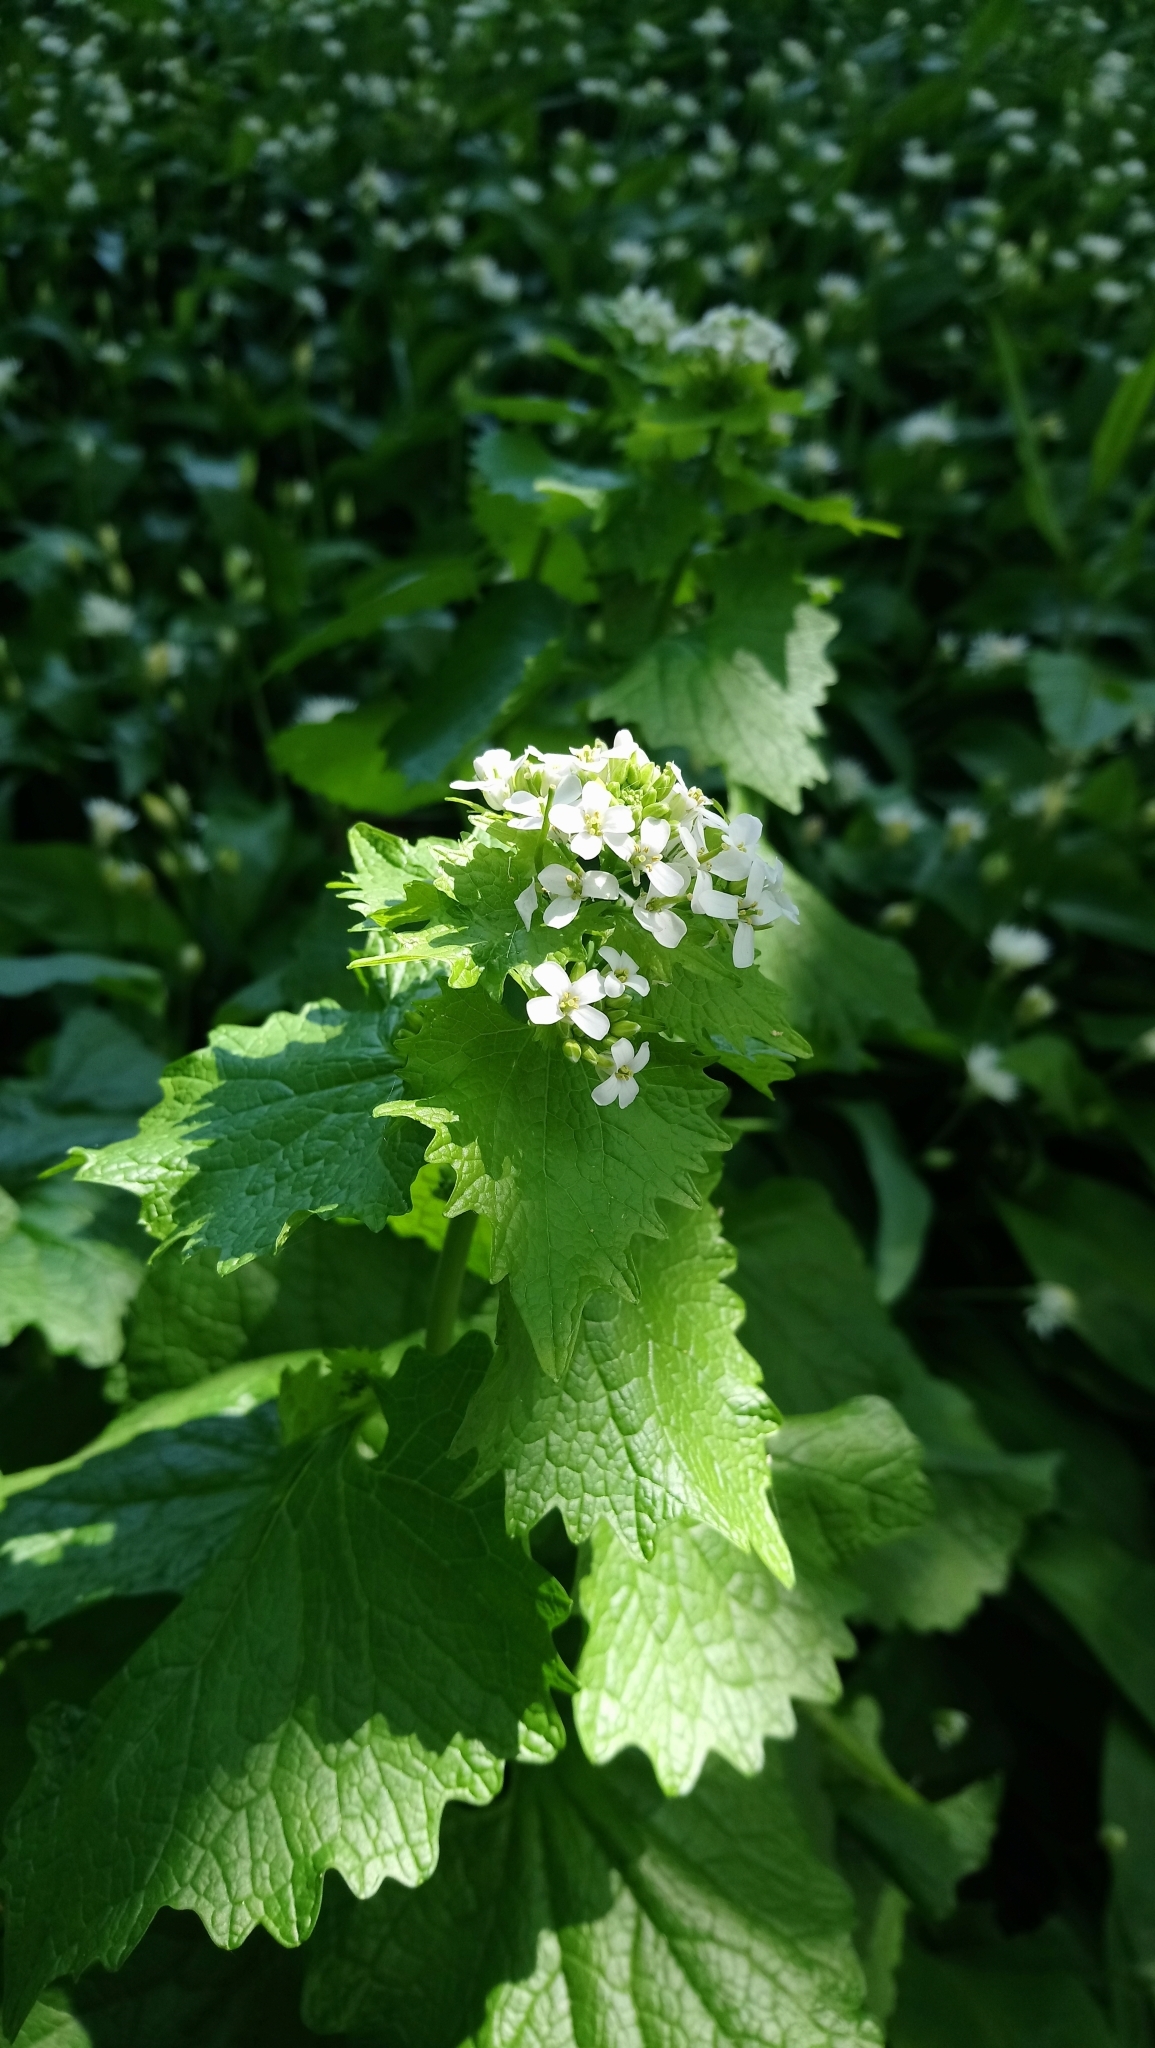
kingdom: Plantae
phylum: Tracheophyta
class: Magnoliopsida
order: Brassicales
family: Brassicaceae
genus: Alliaria
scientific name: Alliaria petiolata
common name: Garlic mustard
